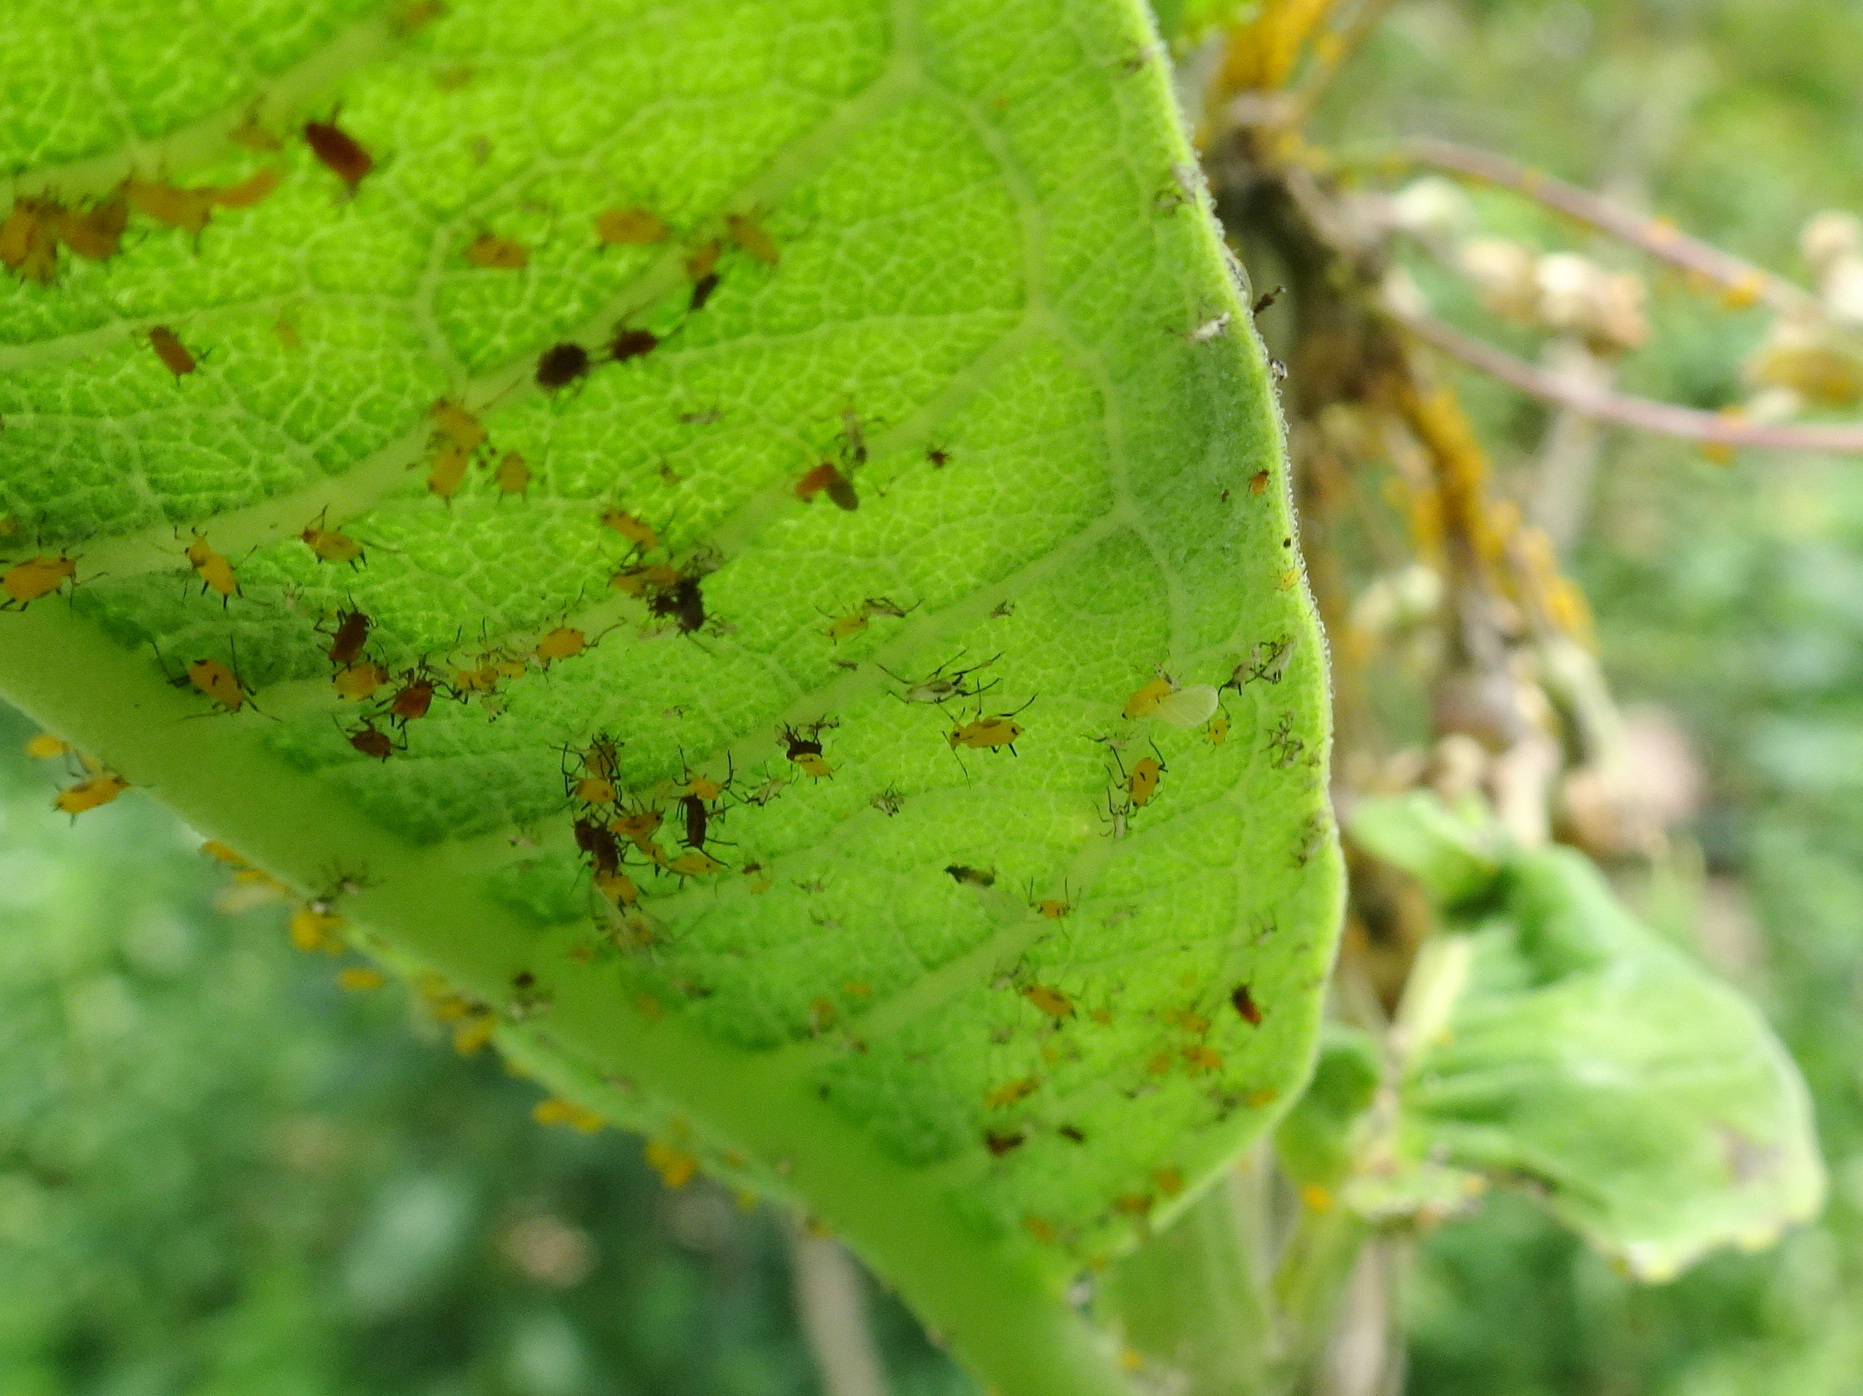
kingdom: Animalia
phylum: Arthropoda
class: Insecta
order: Hemiptera
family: Aphididae
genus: Aphis
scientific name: Aphis nerii
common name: Oleander aphid
